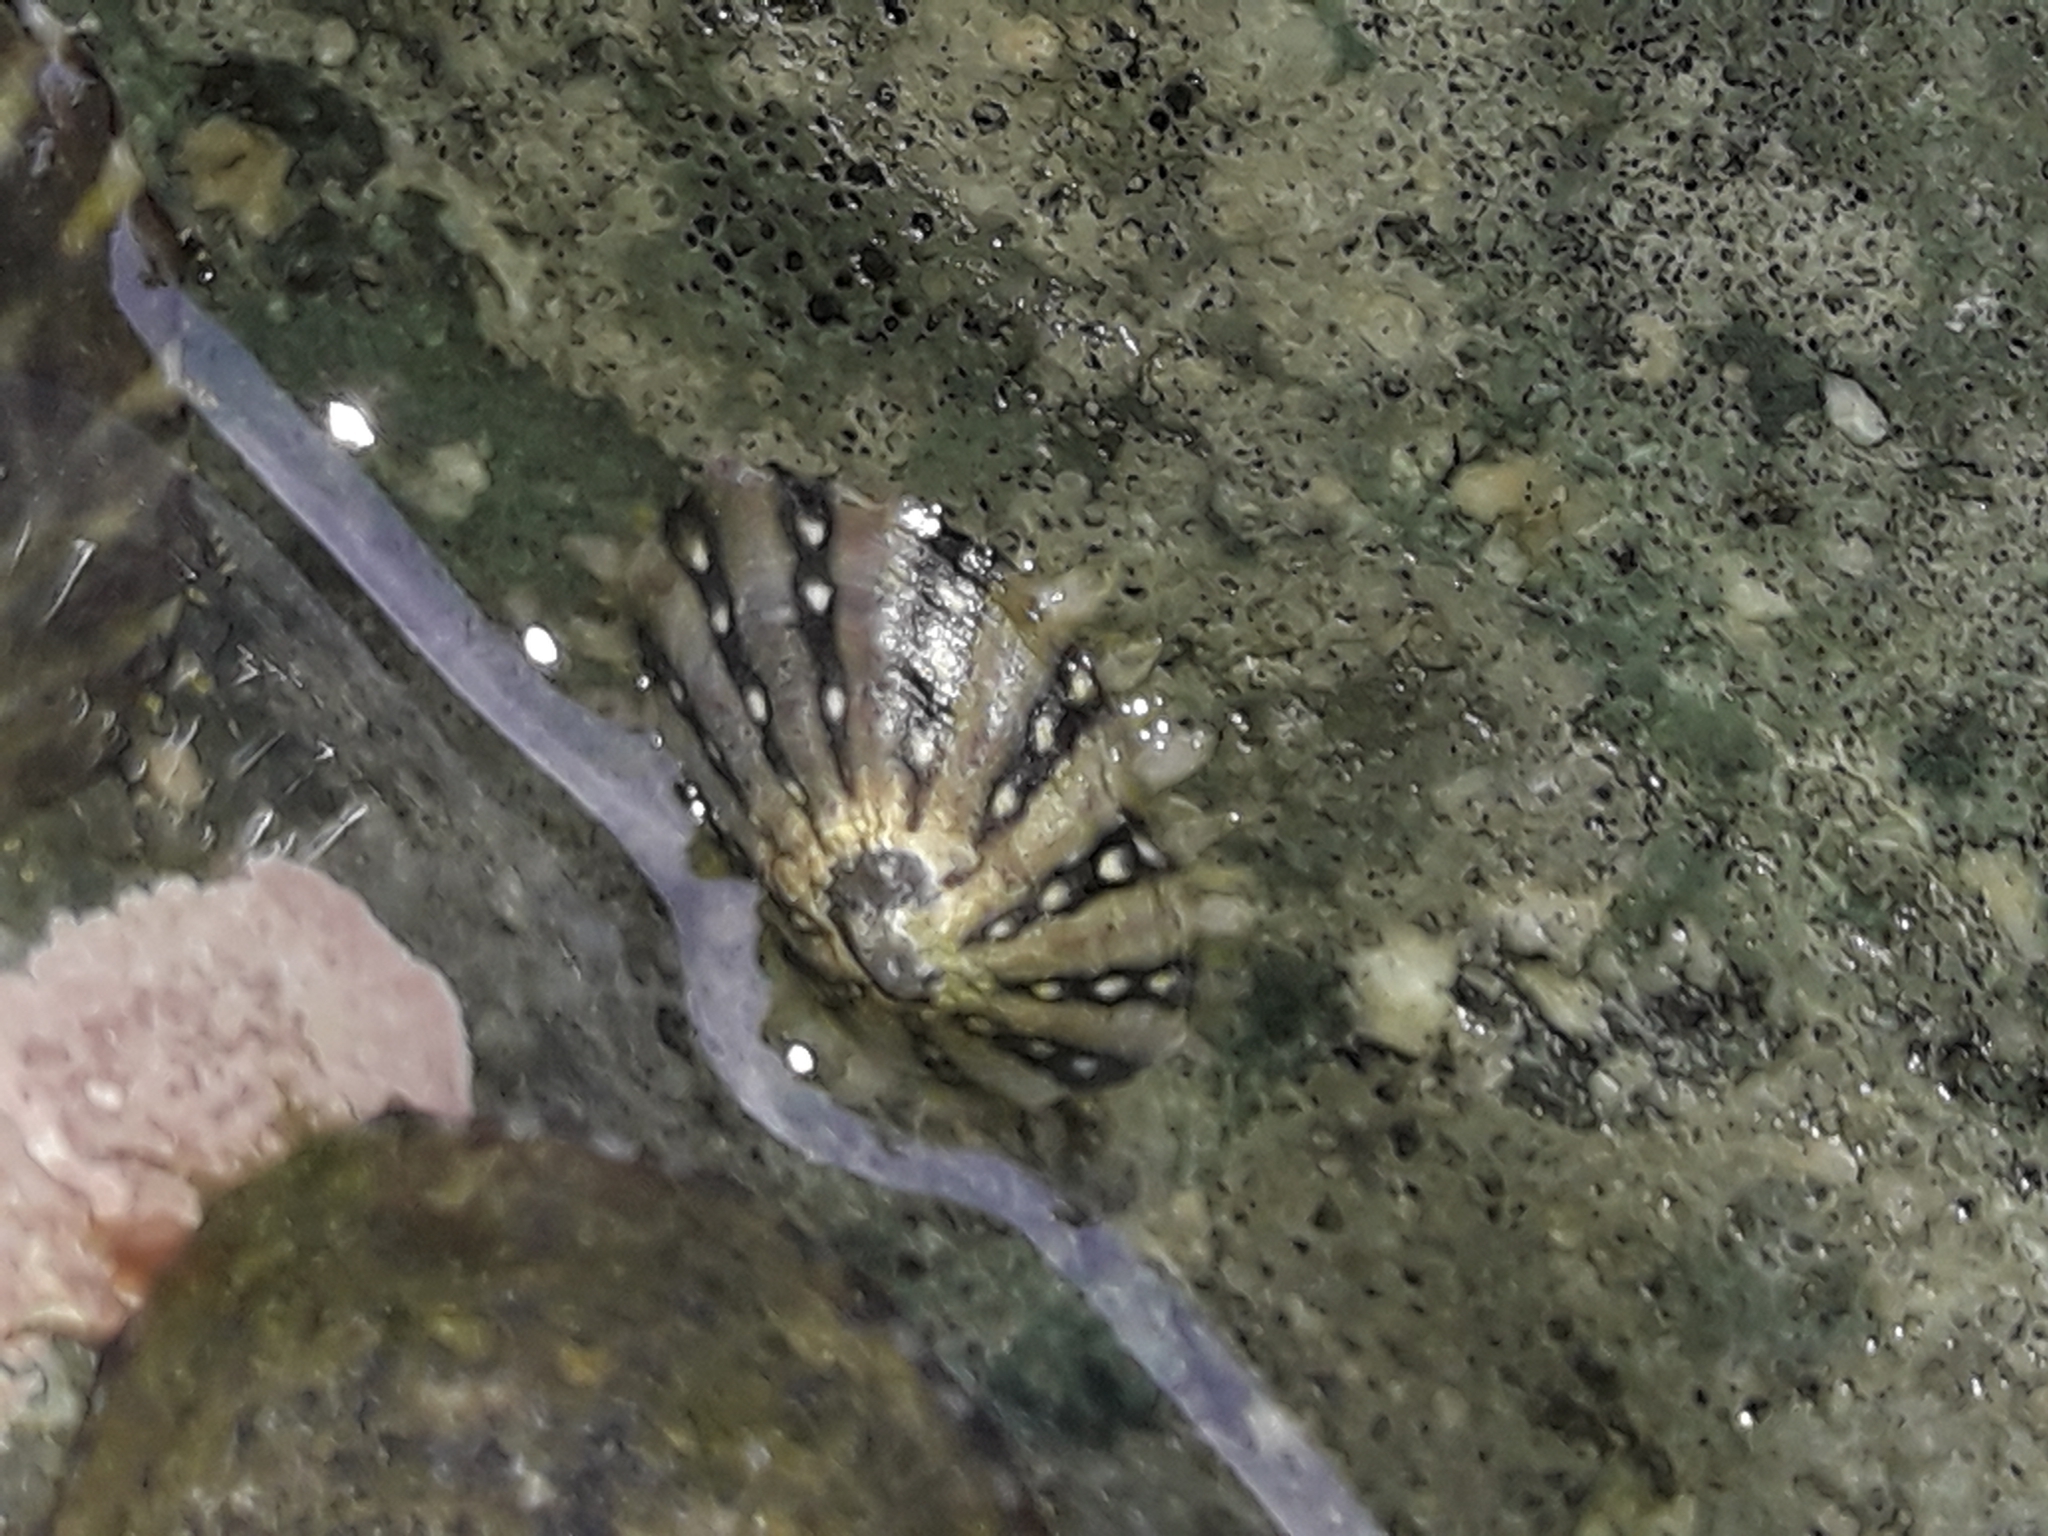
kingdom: Animalia
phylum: Mollusca
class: Gastropoda
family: Nacellidae
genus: Cellana
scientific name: Cellana ornata
